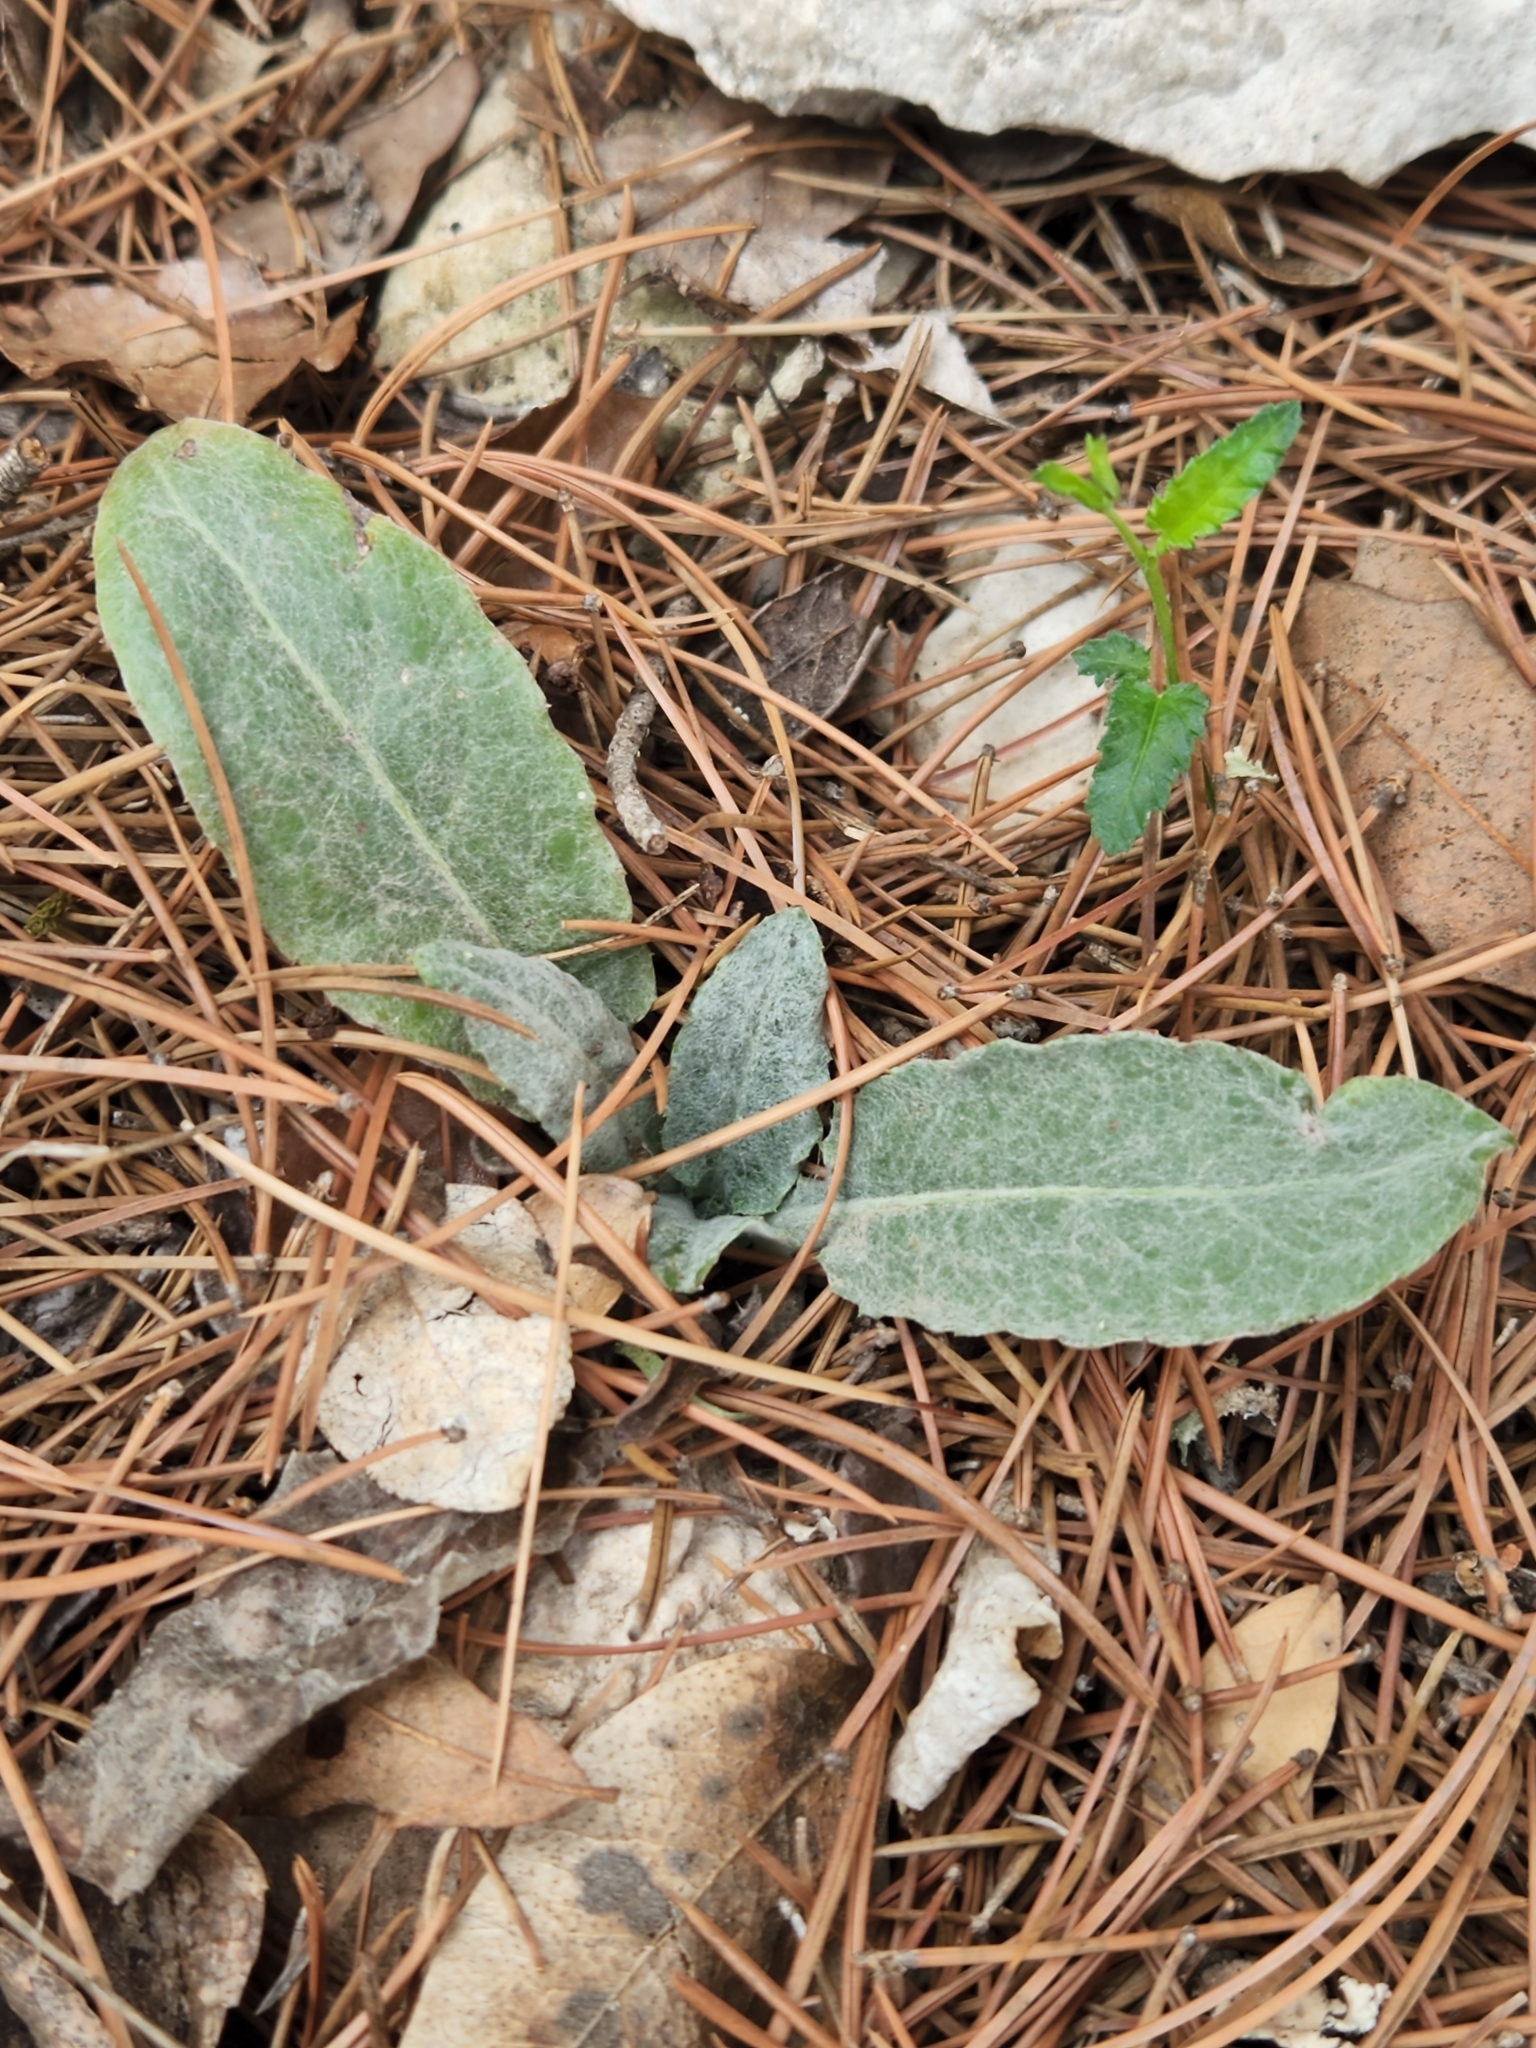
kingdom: Plantae
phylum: Tracheophyta
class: Magnoliopsida
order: Asterales
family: Asteraceae
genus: Chaptalia
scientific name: Chaptalia texana
